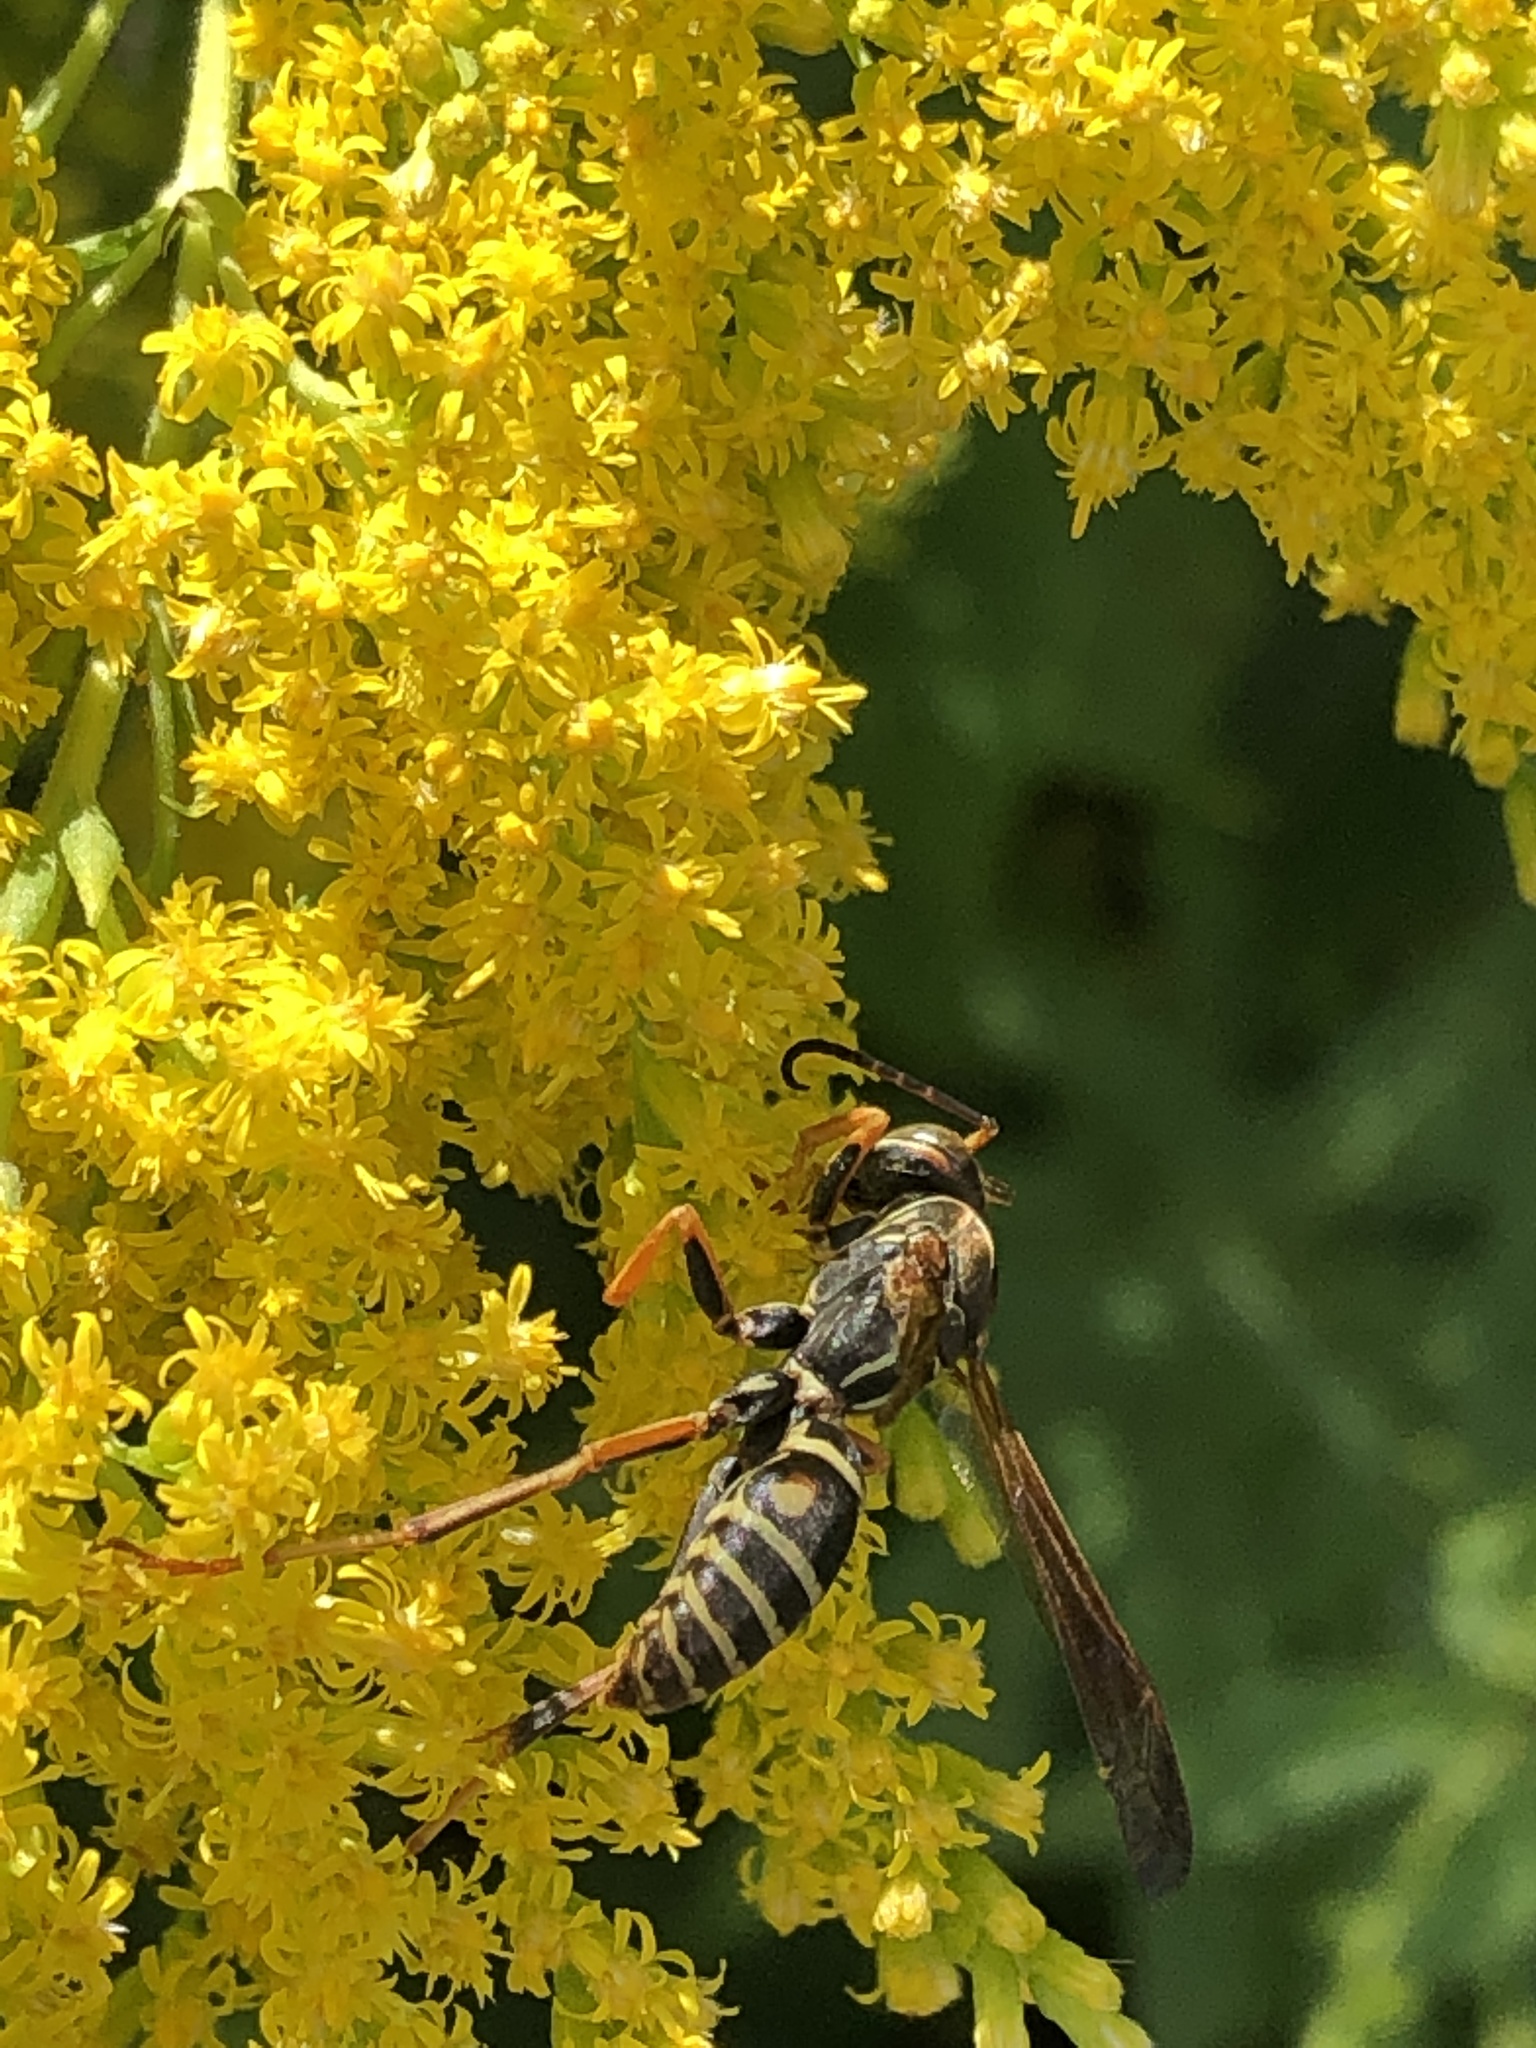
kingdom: Animalia
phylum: Arthropoda
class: Insecta
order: Hymenoptera
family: Eumenidae
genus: Polistes
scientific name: Polistes fuscatus
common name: Dark paper wasp
